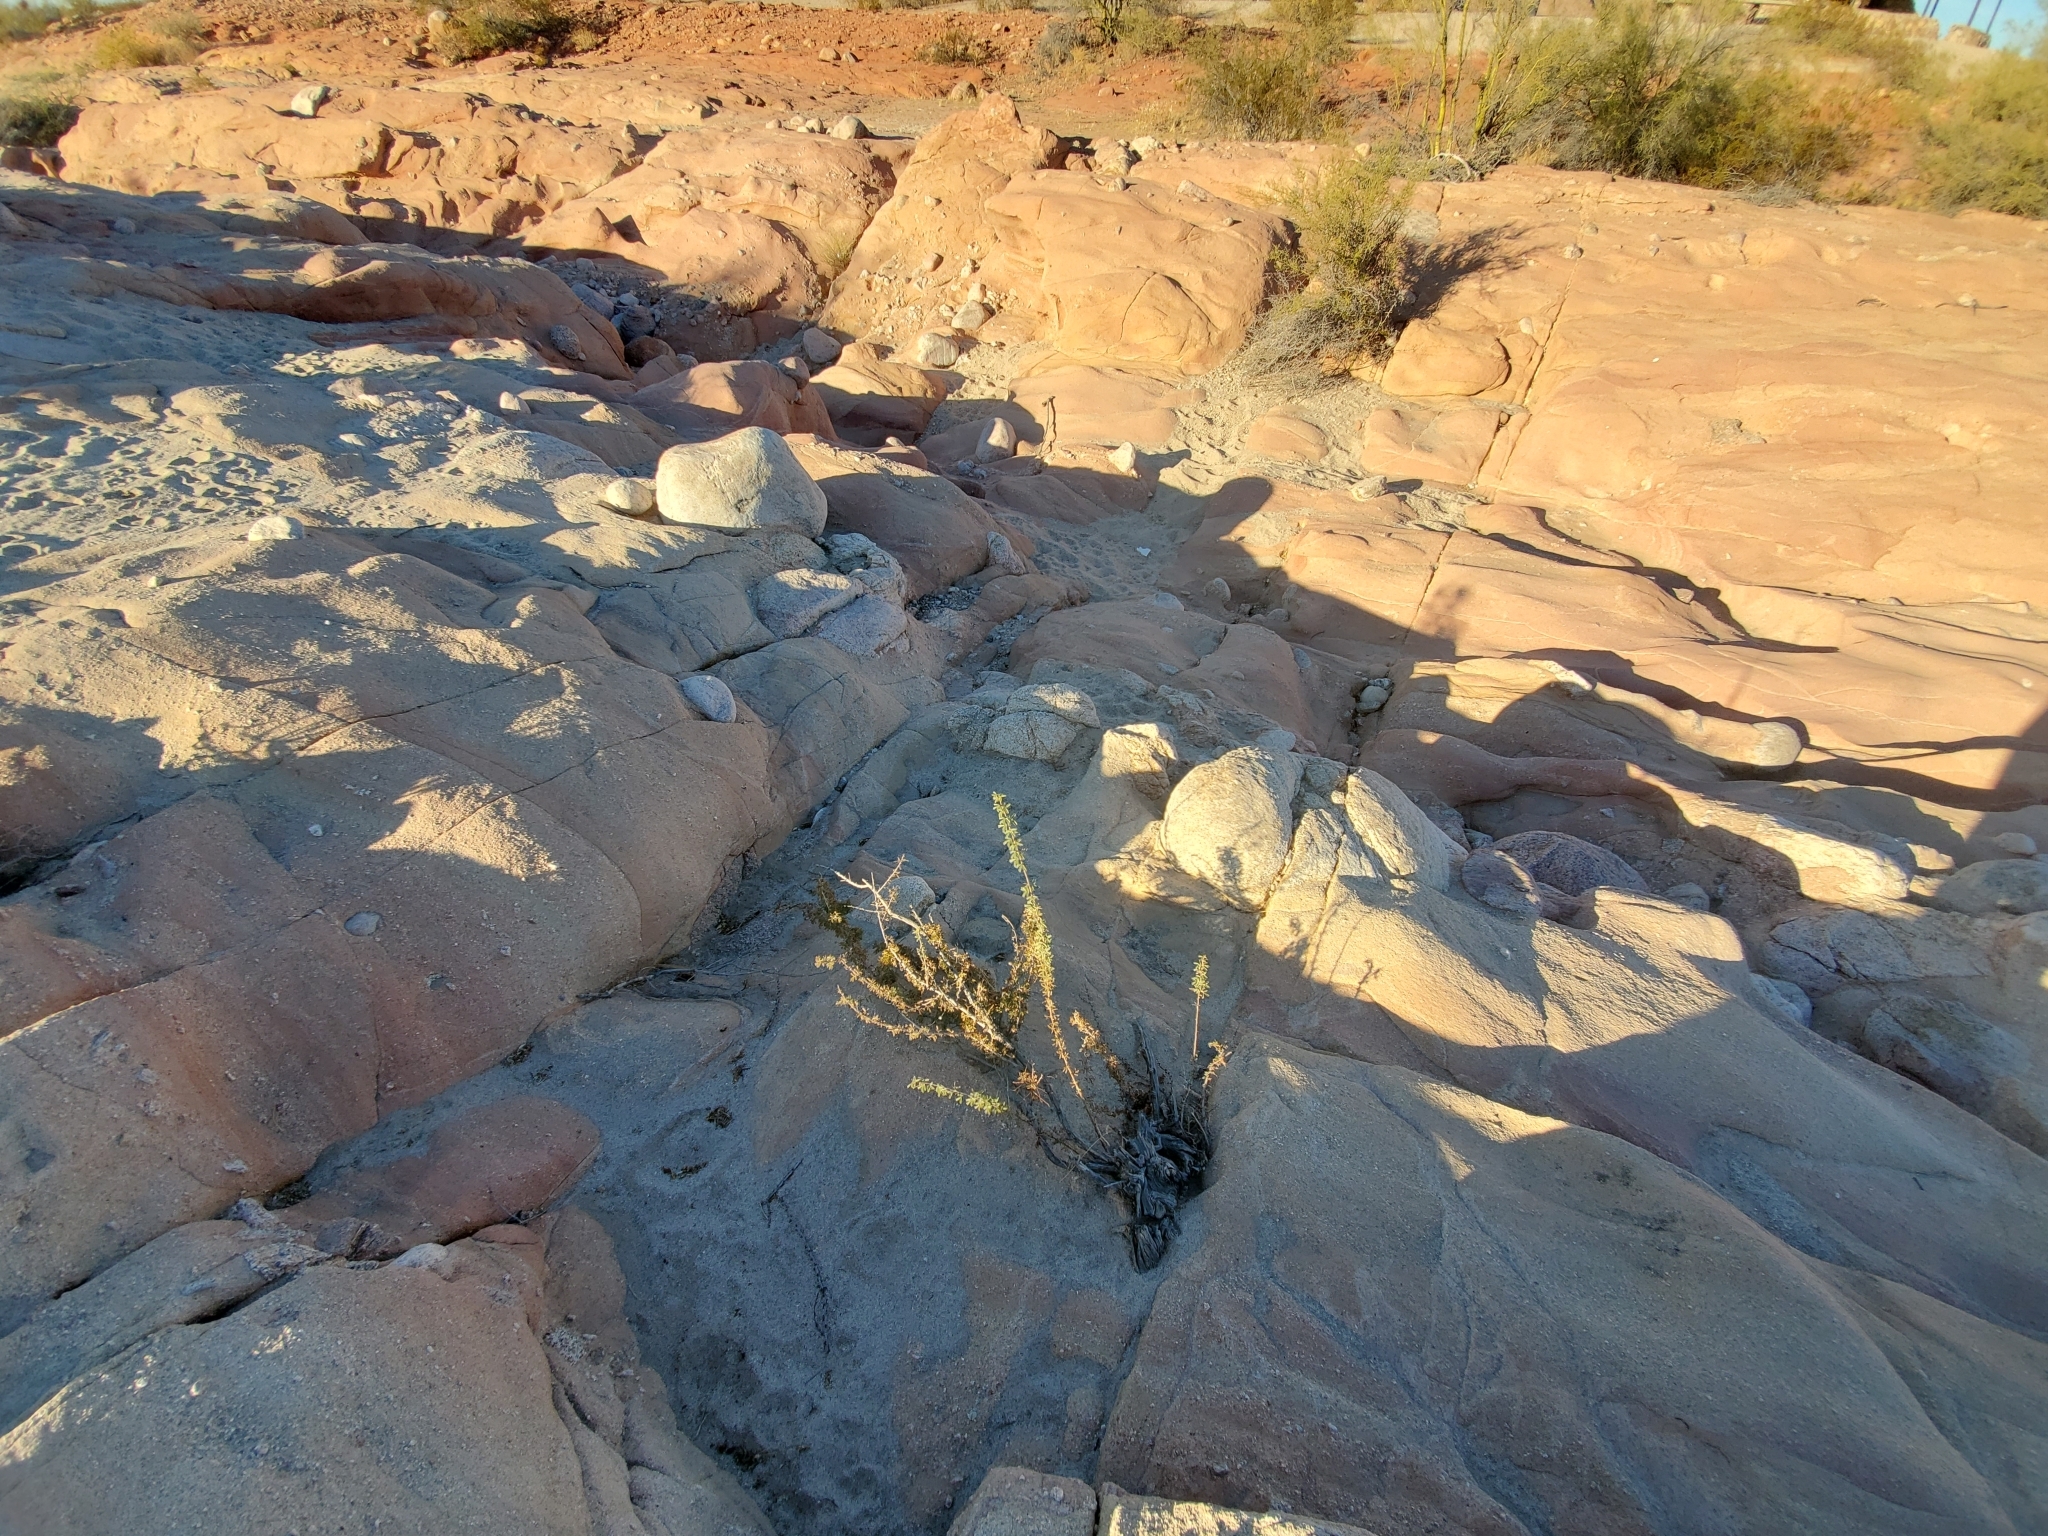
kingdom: Plantae
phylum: Tracheophyta
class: Magnoliopsida
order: Fabales
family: Fabaceae
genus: Senegalia
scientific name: Senegalia greggii
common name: Texas-mimosa
